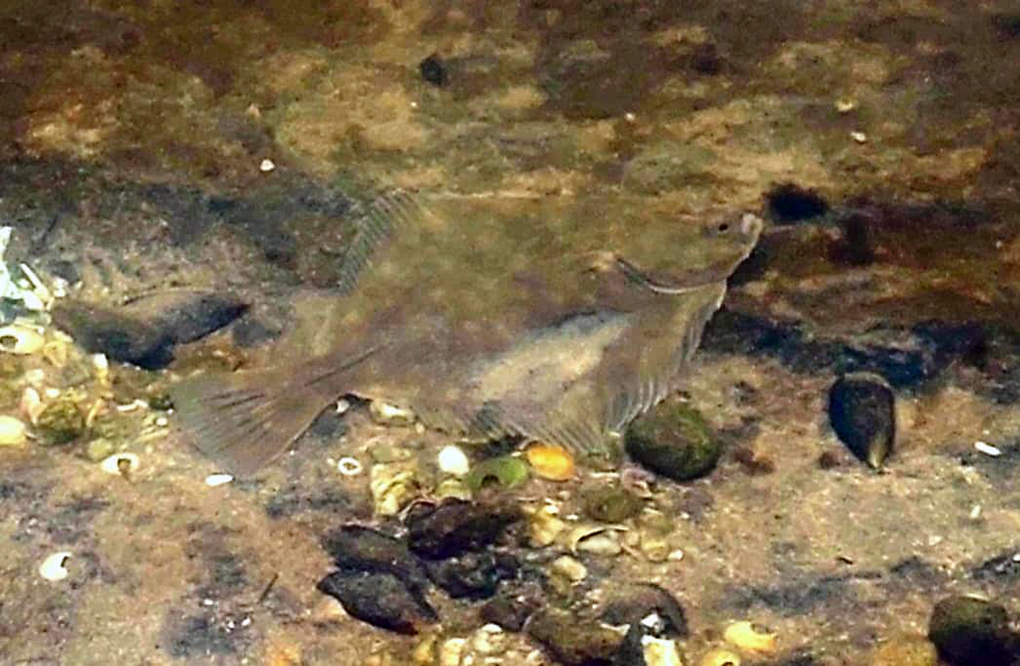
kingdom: Animalia
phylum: Chordata
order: Pleuronectiformes
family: Pleuronectidae
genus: Rhombosolea
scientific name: Rhombosolea plebeia
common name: Dab
